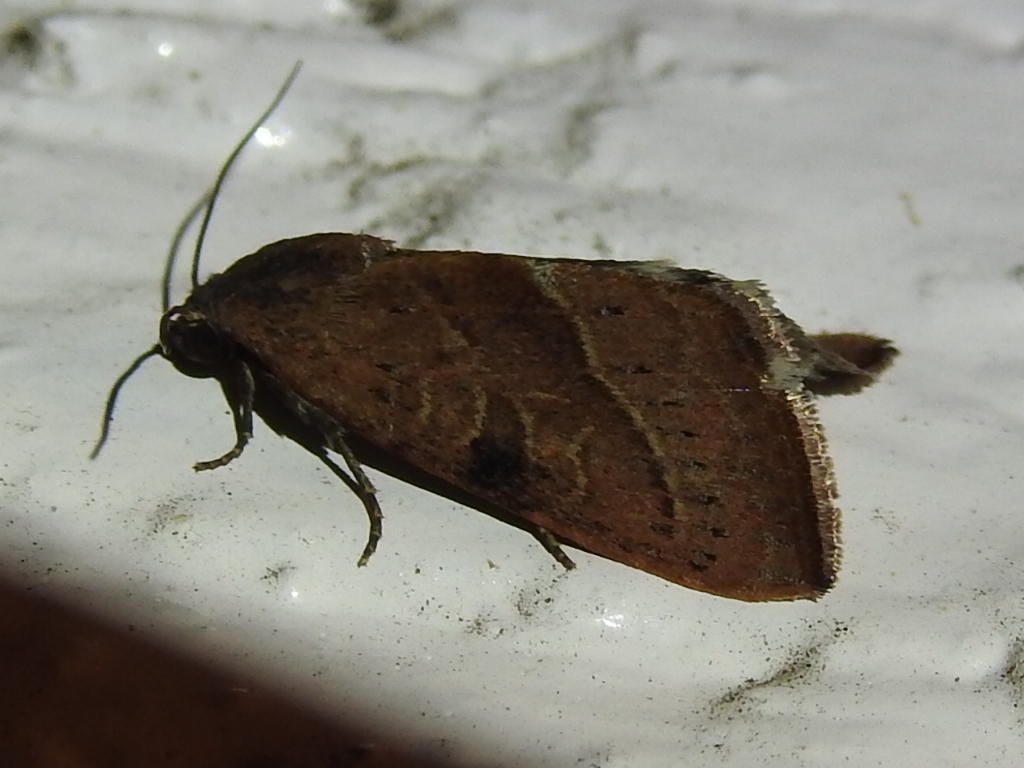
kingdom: Animalia
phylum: Arthropoda
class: Insecta
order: Lepidoptera
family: Noctuidae
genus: Galgula
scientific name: Galgula partita
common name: Wedgeling
